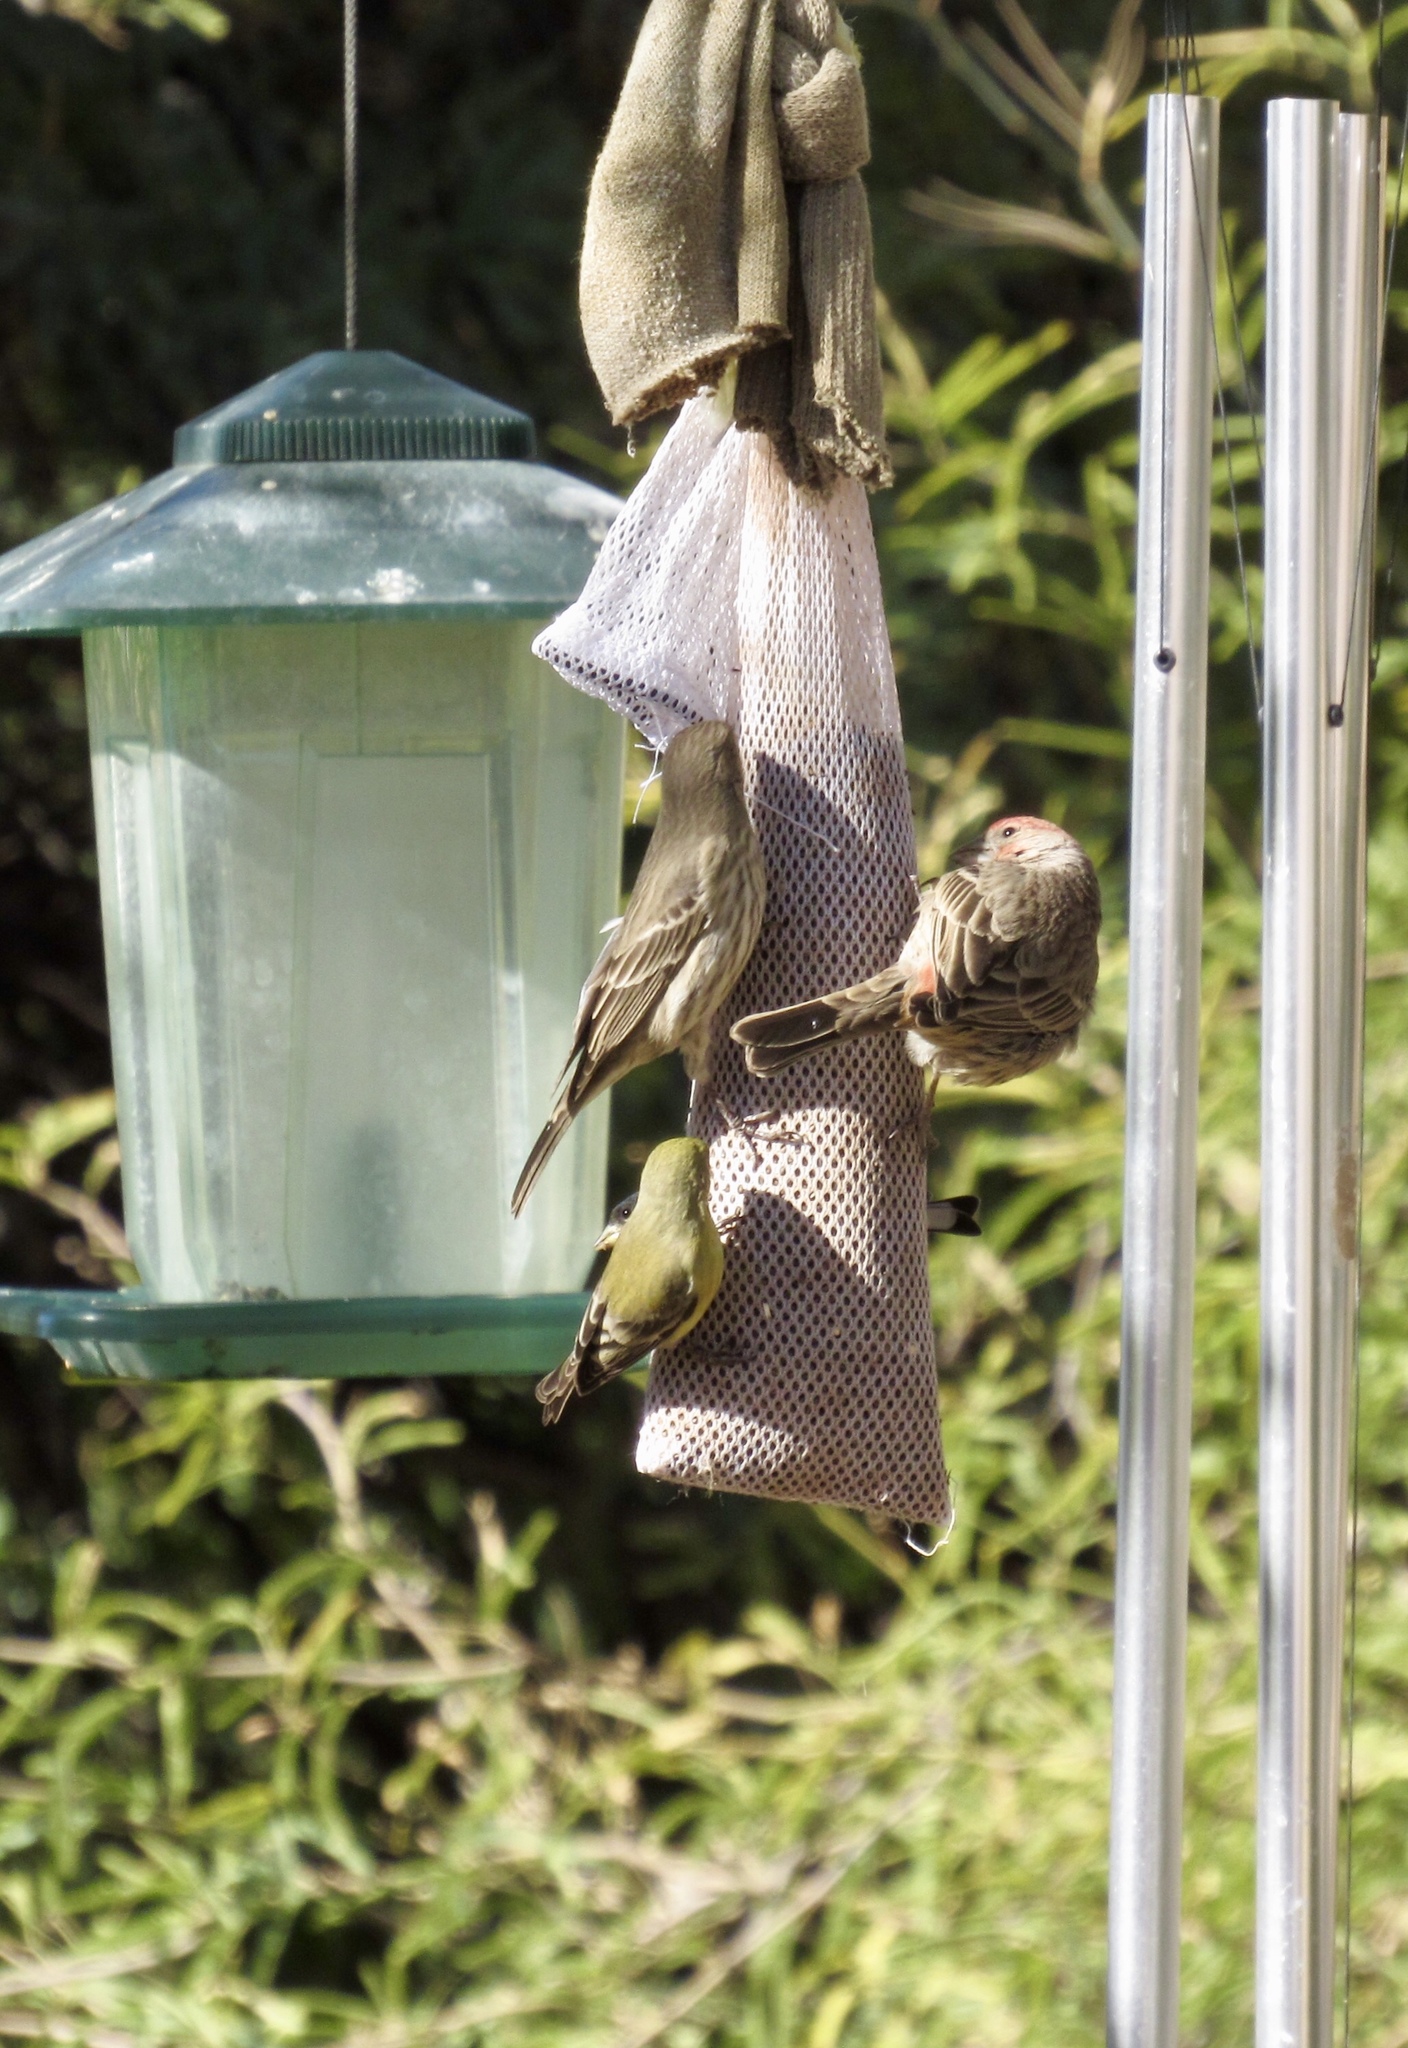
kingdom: Animalia
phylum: Chordata
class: Aves
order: Passeriformes
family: Fringillidae
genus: Haemorhous
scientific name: Haemorhous mexicanus
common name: House finch
